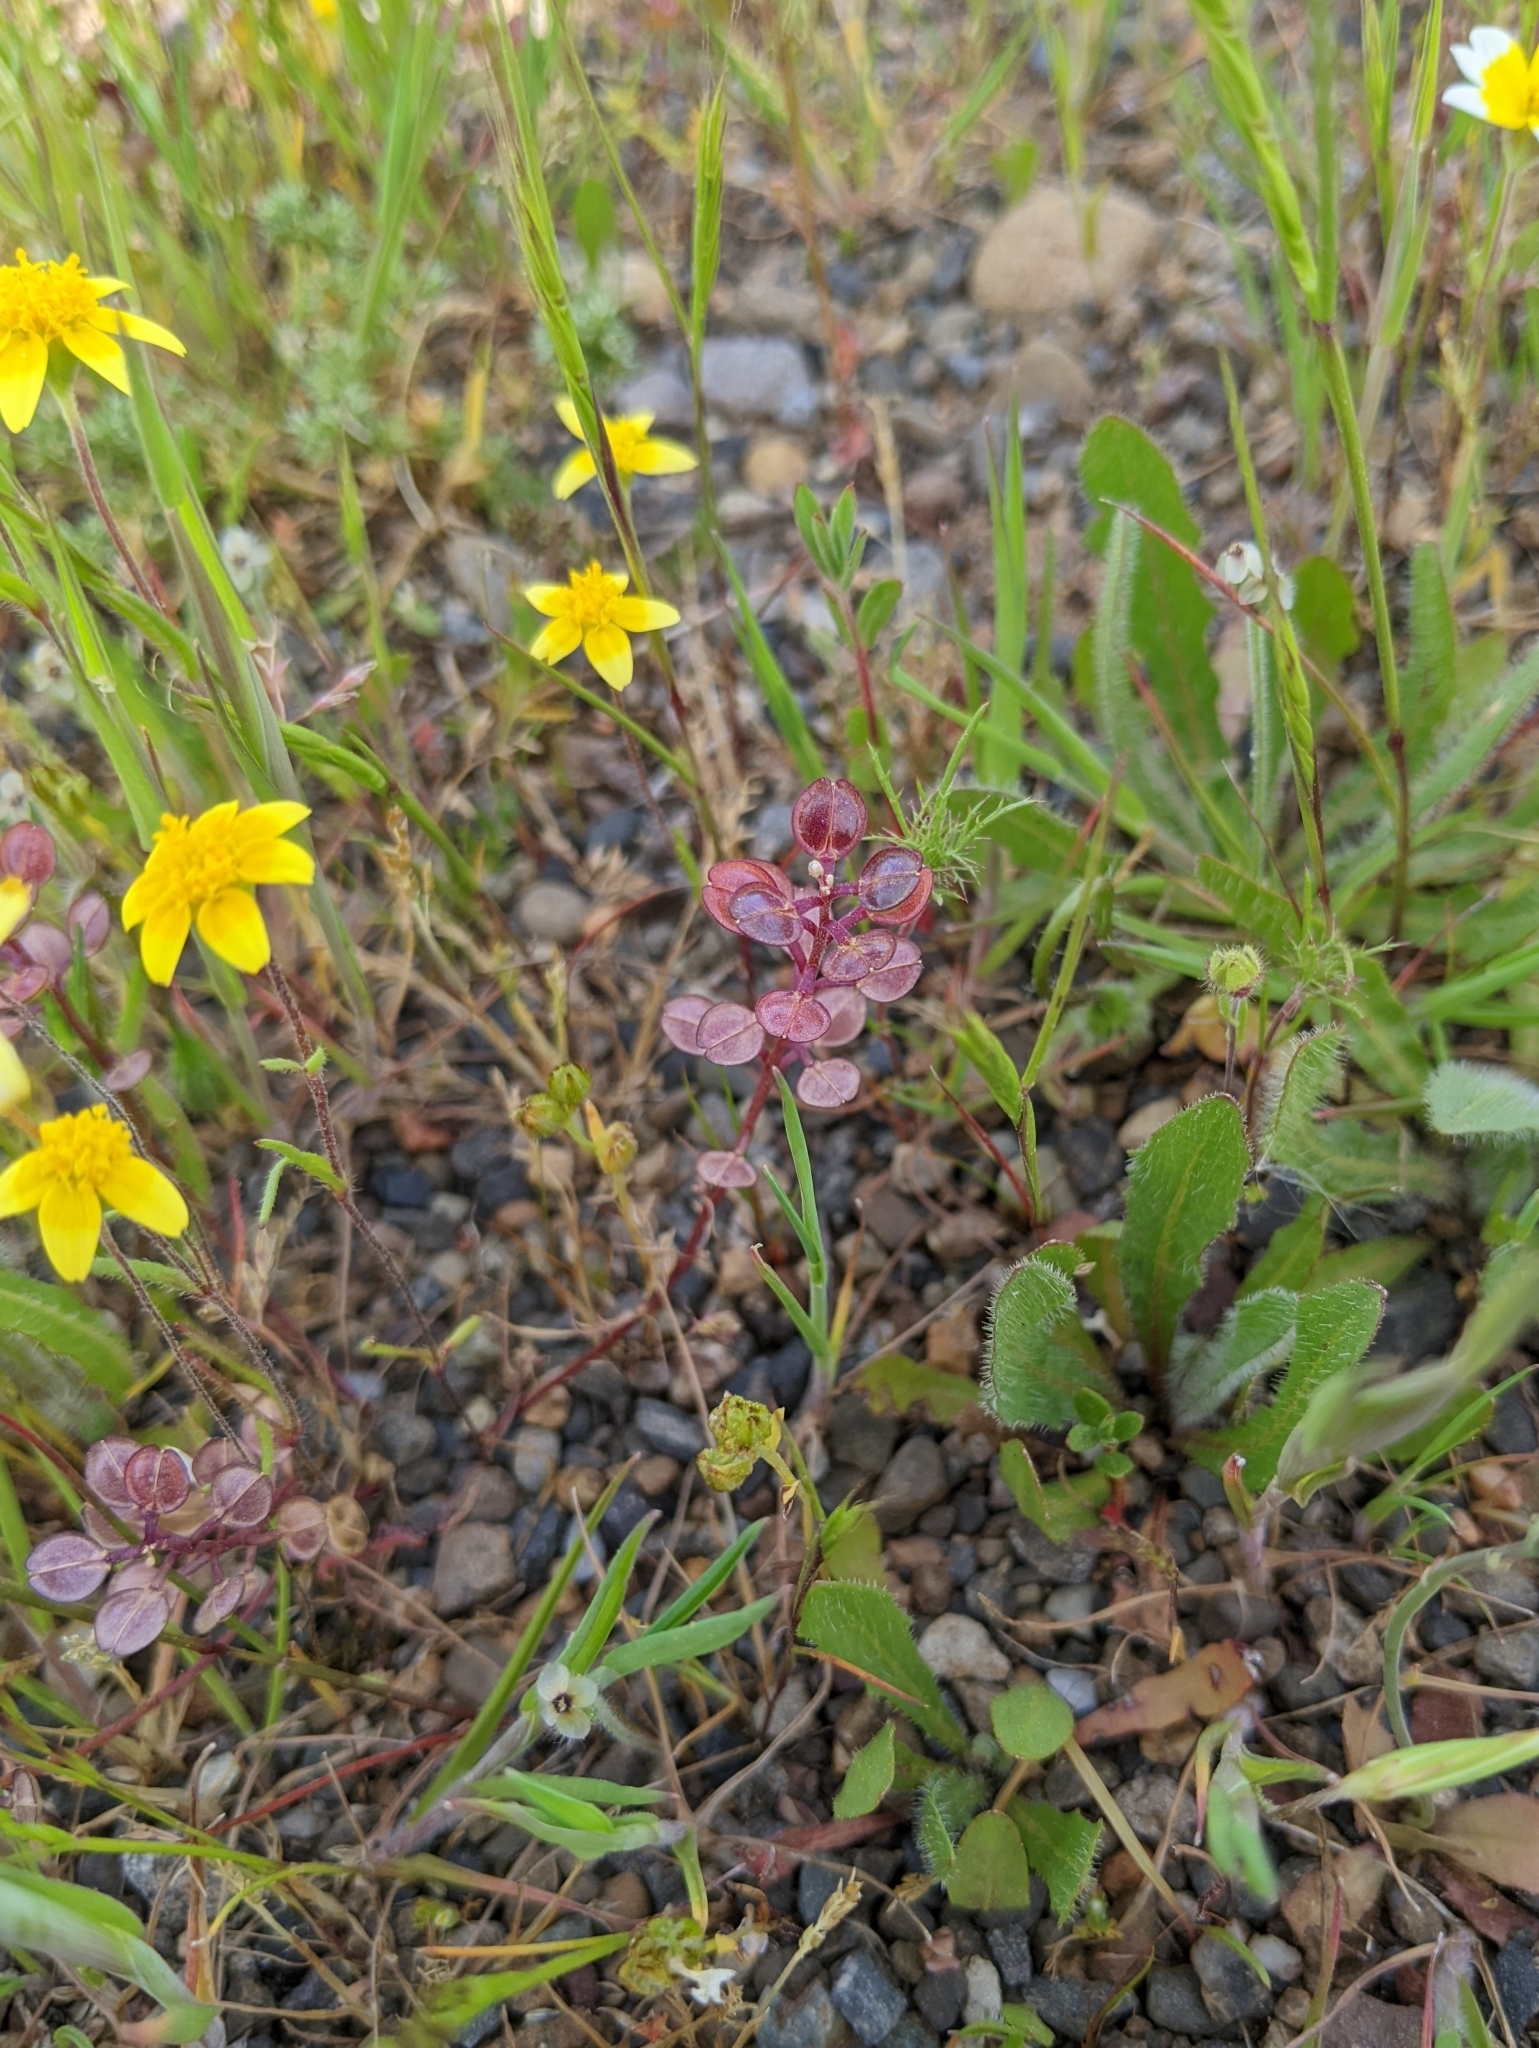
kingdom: Plantae
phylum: Tracheophyta
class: Magnoliopsida
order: Brassicales
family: Brassicaceae
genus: Lepidium
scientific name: Lepidium nitidum
